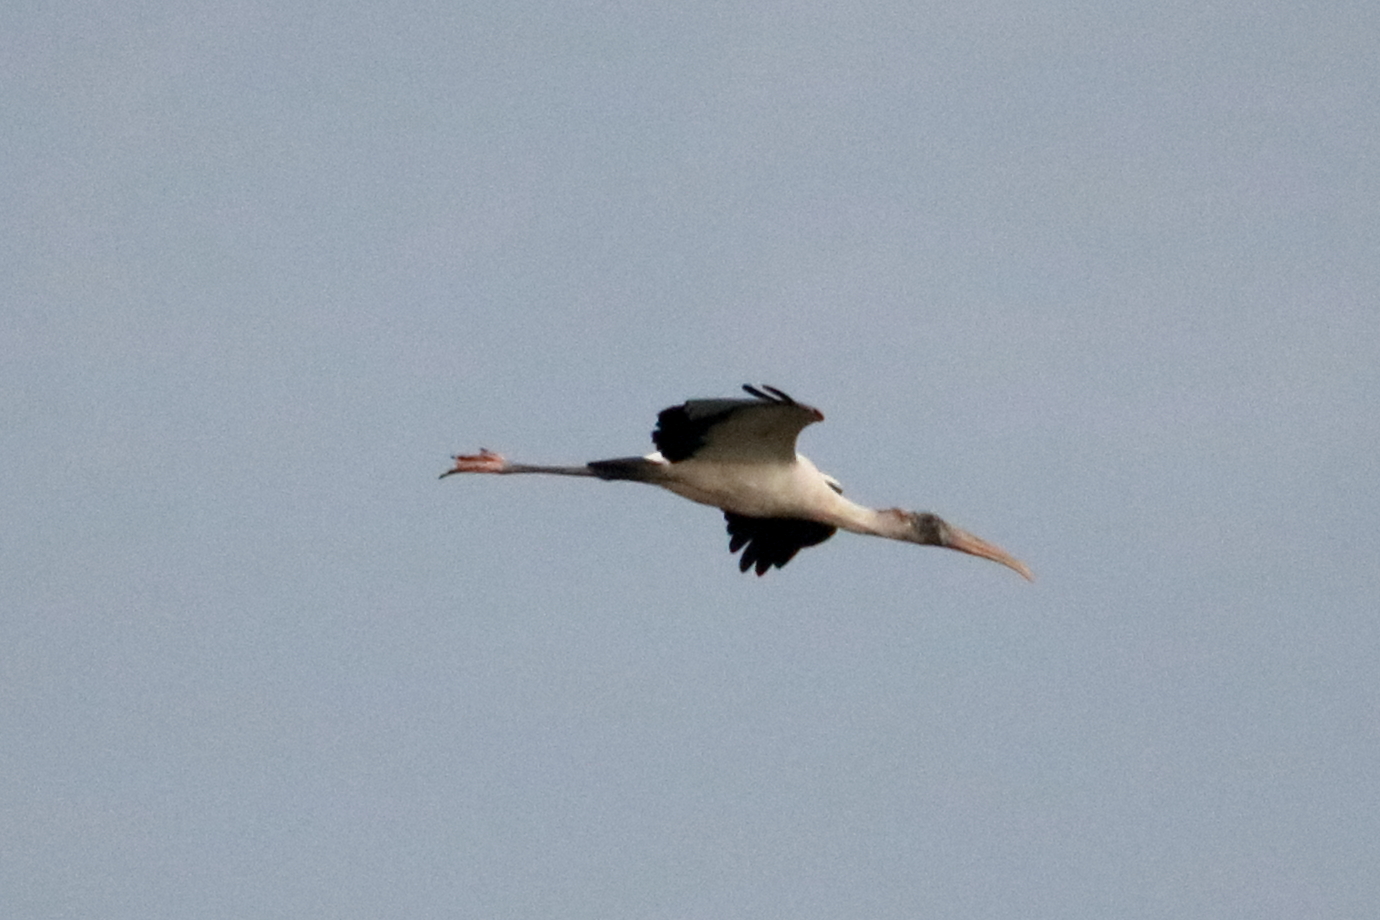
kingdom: Animalia
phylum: Chordata
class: Aves
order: Ciconiiformes
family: Ciconiidae
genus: Mycteria
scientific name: Mycteria americana
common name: Wood stork
